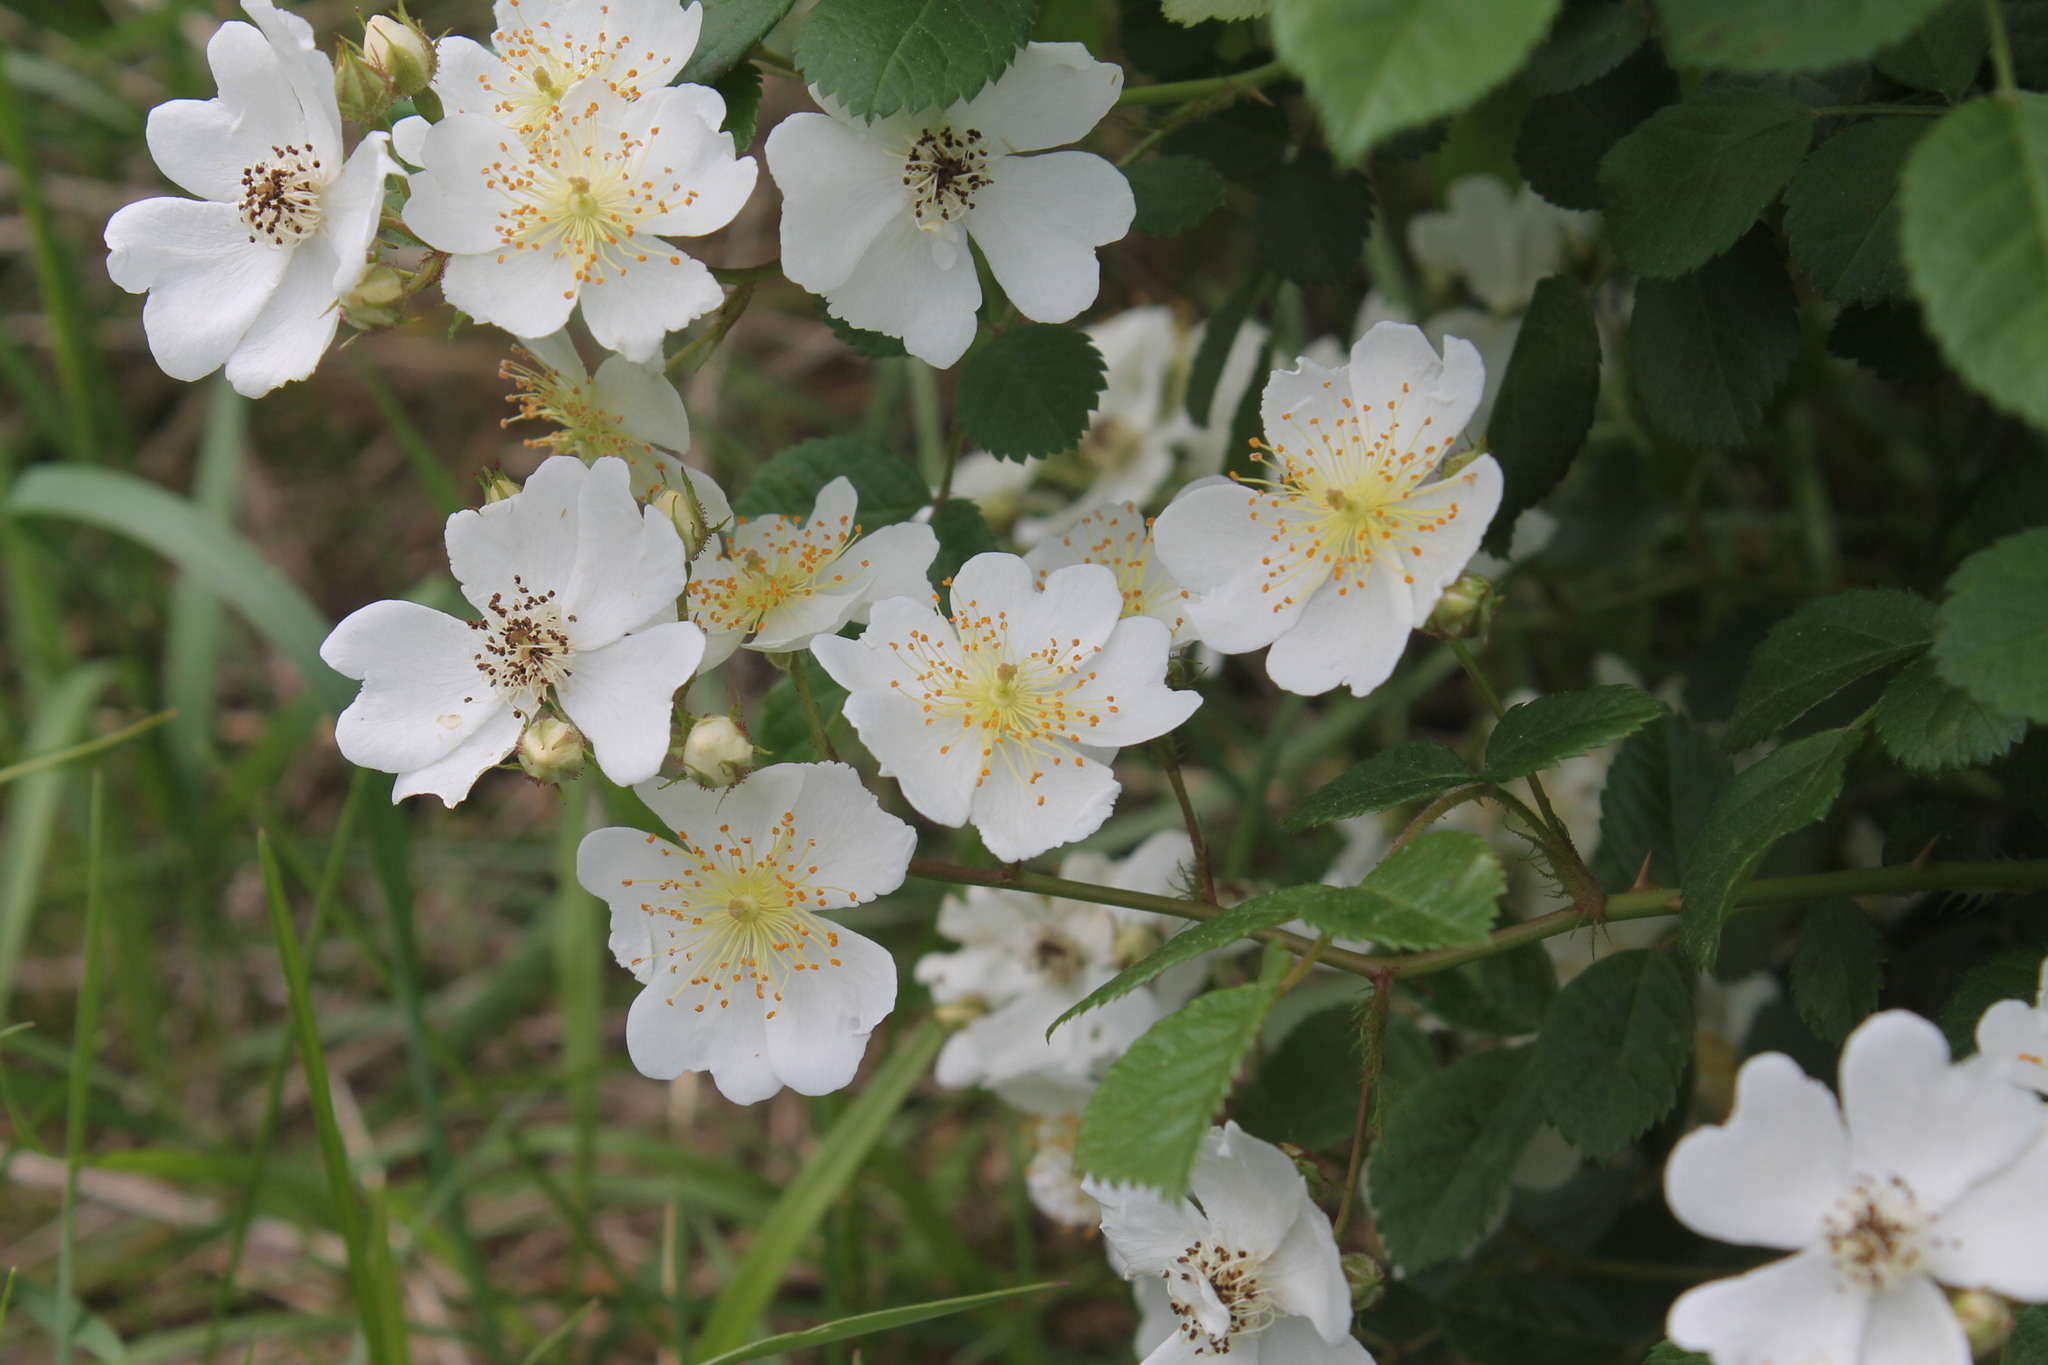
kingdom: Plantae
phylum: Tracheophyta
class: Magnoliopsida
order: Rosales
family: Rosaceae
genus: Rosa
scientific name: Rosa multiflora
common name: Multiflora rose
